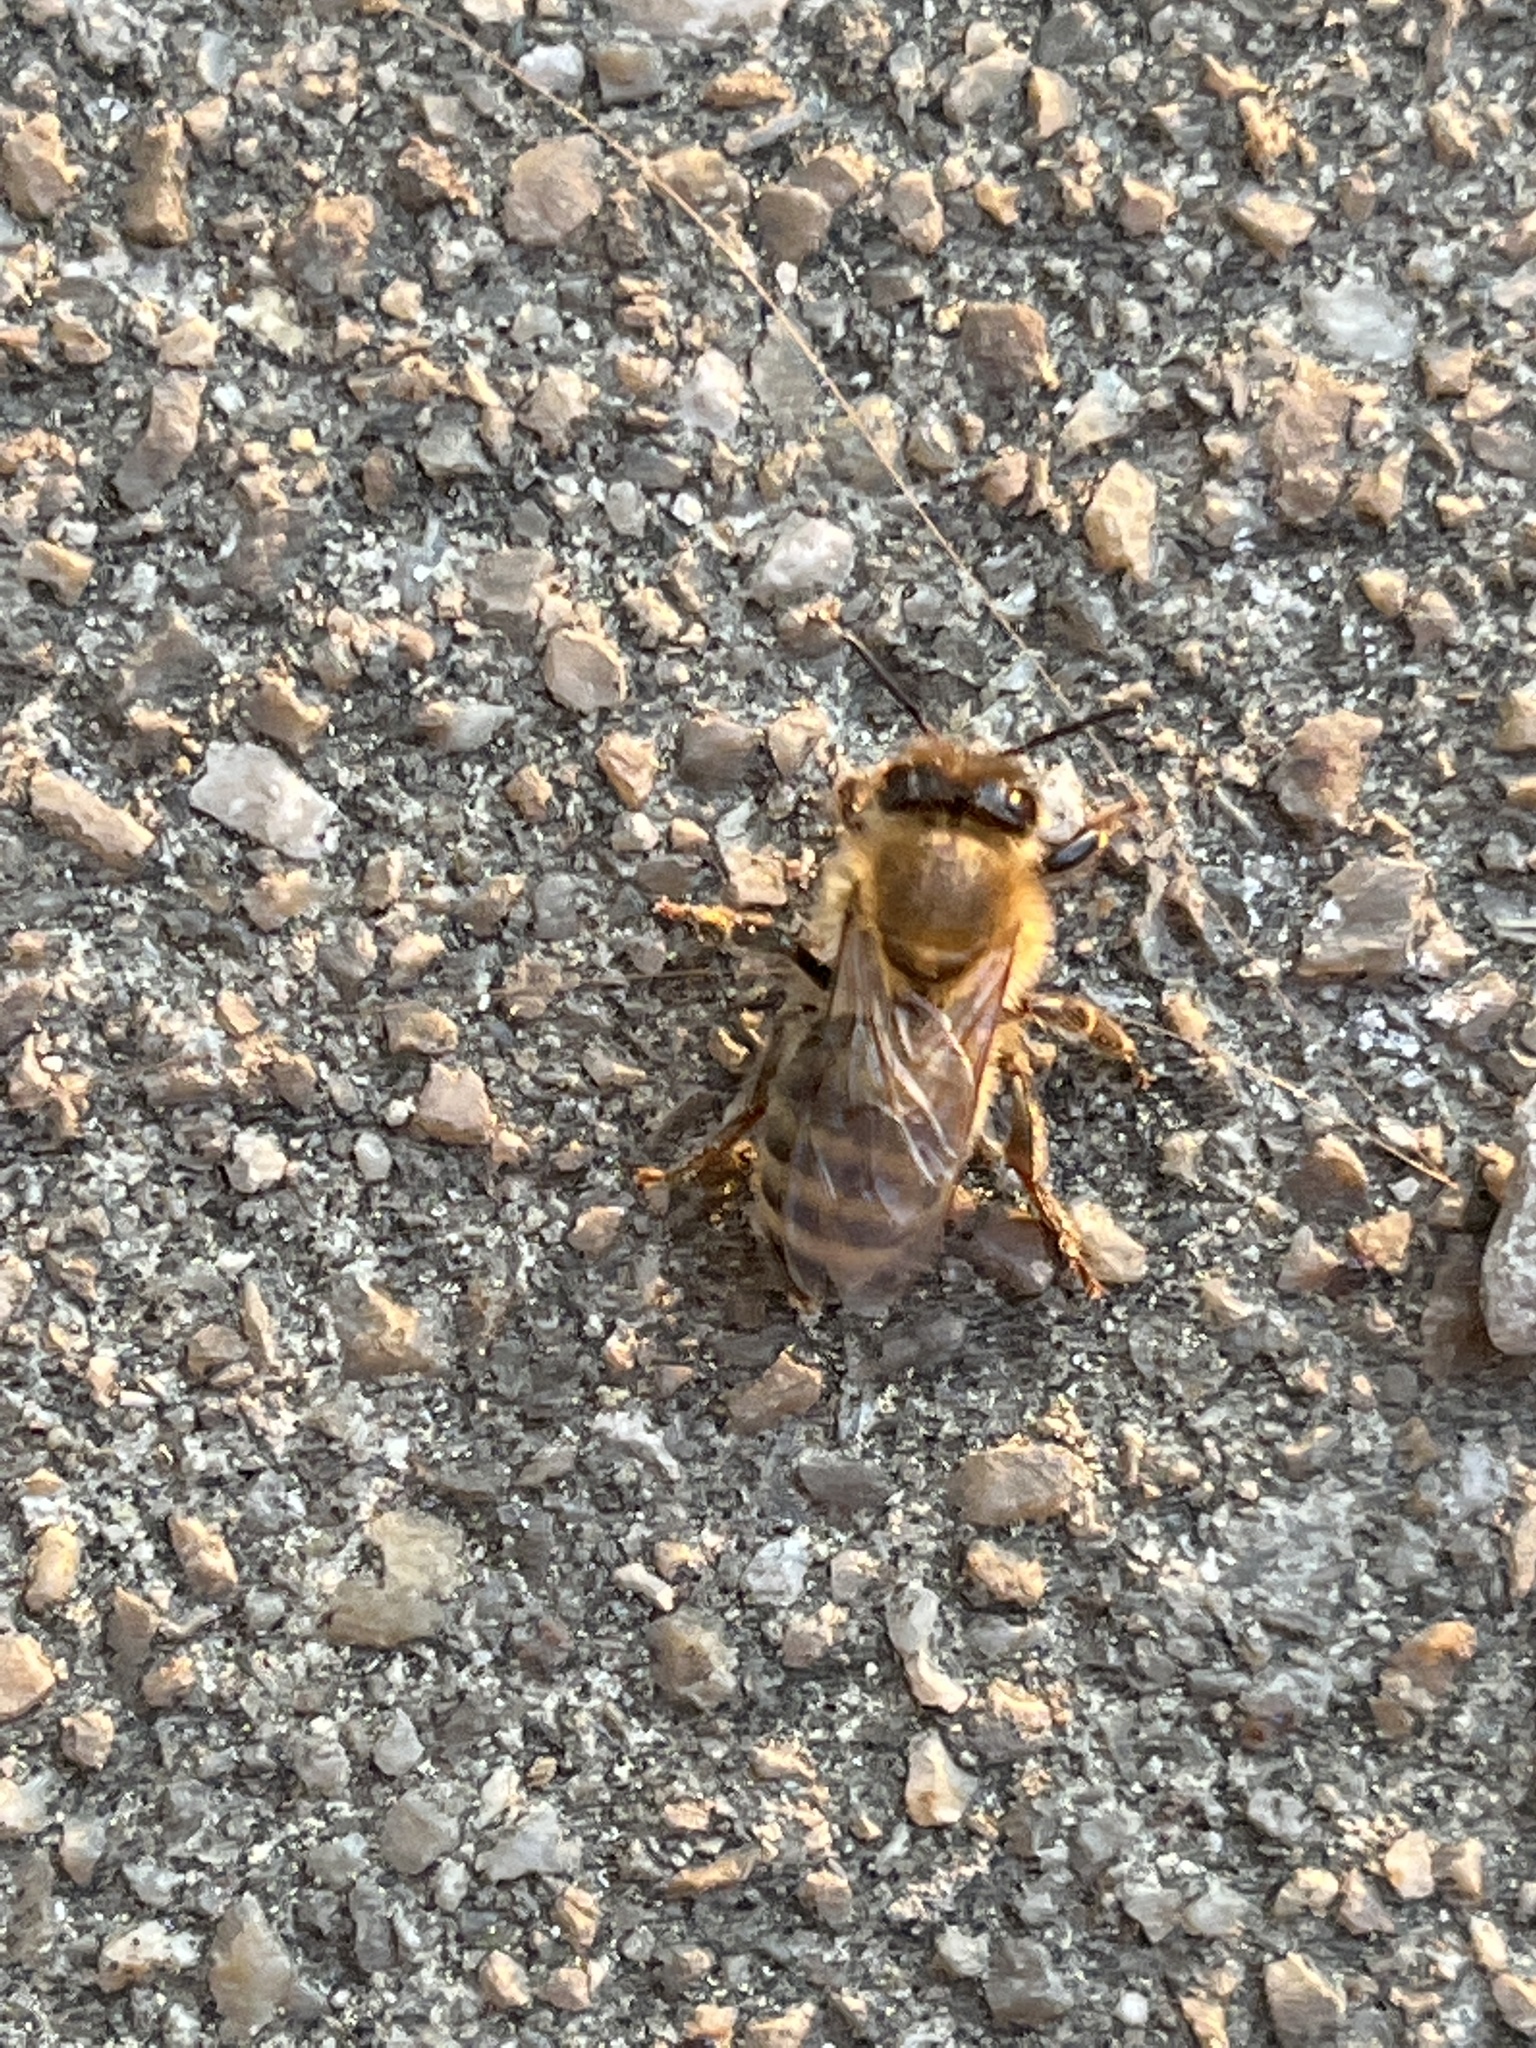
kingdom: Animalia
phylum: Arthropoda
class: Insecta
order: Hymenoptera
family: Apidae
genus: Apis
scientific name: Apis mellifera
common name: Honey bee
